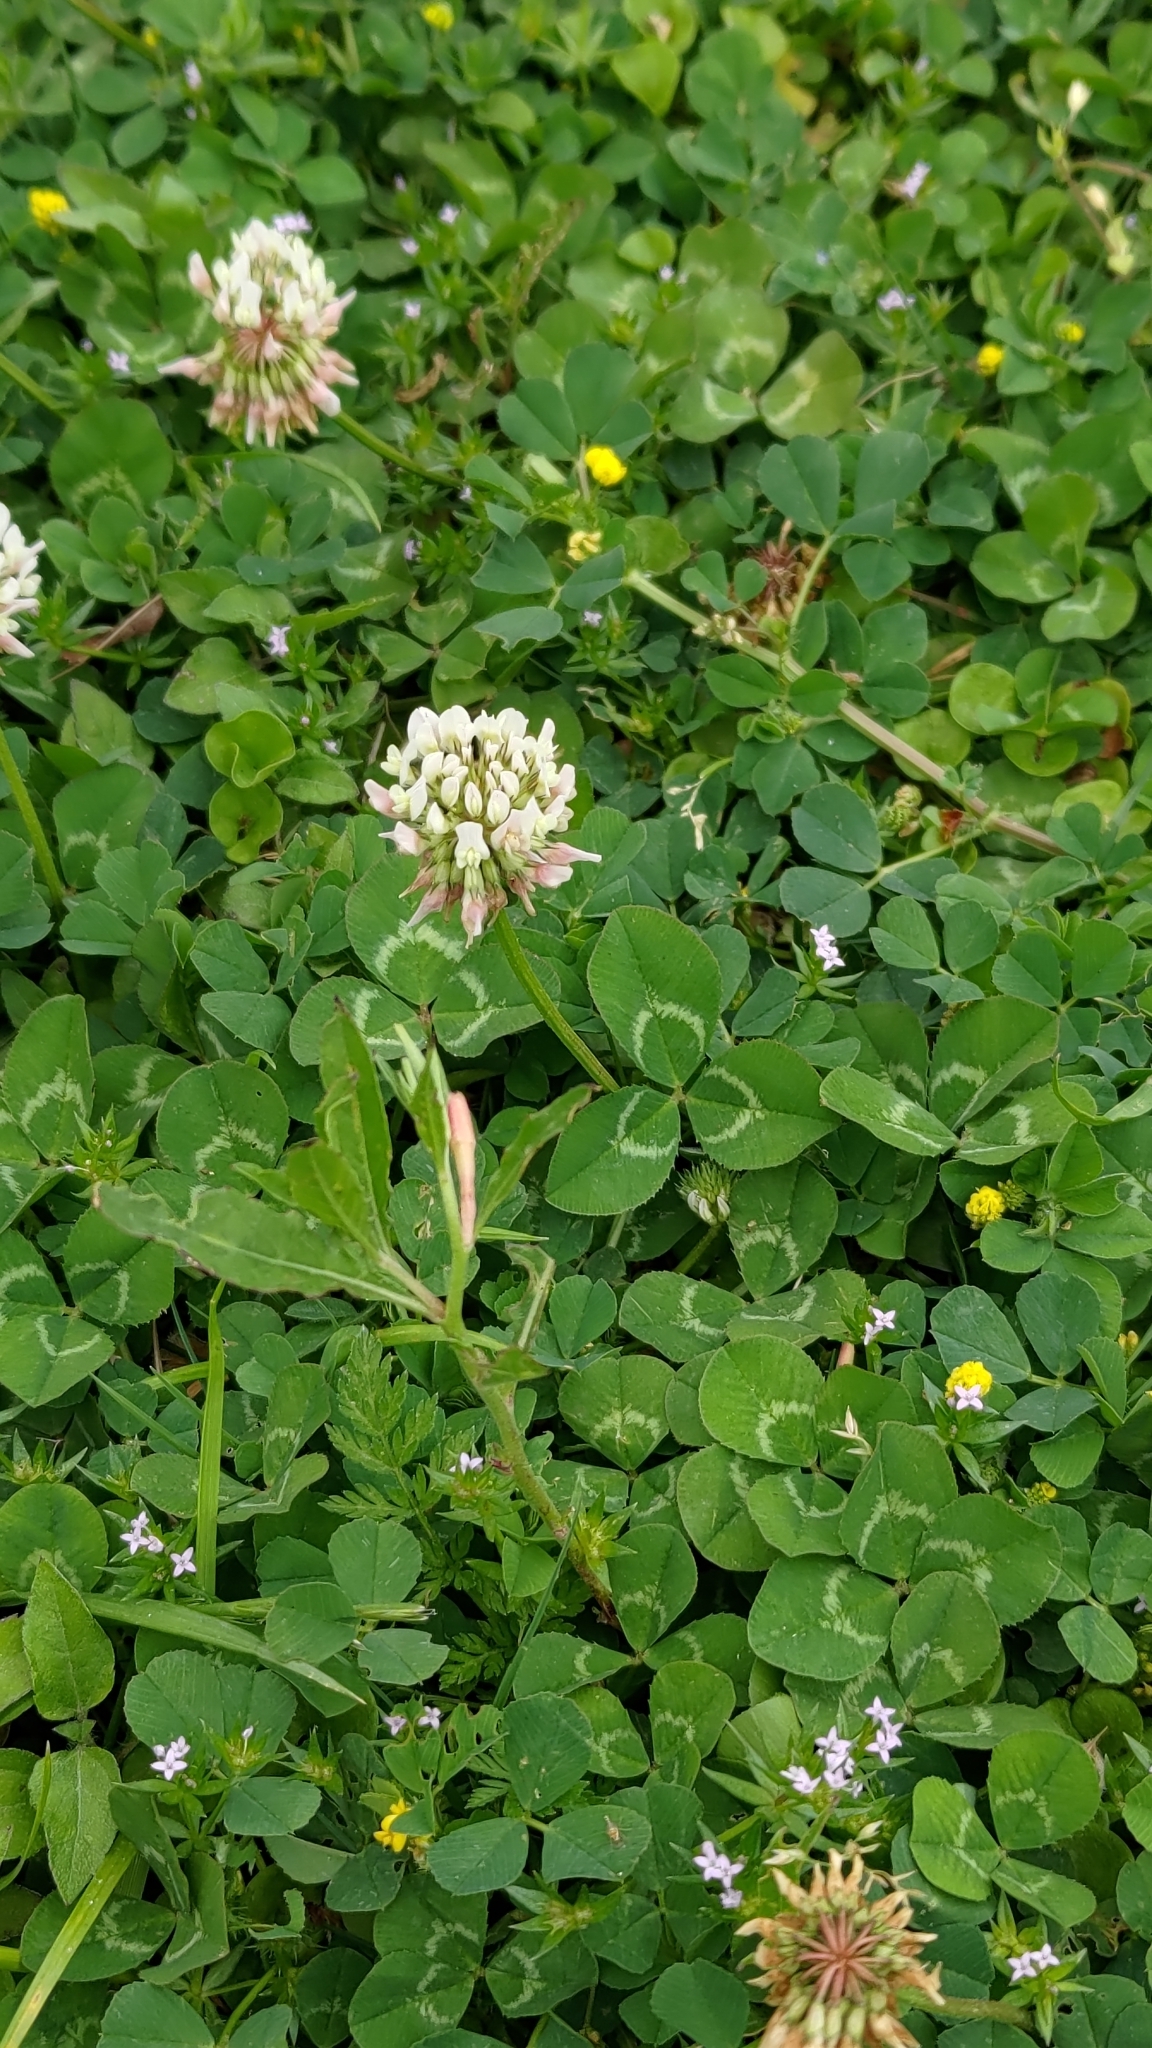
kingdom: Plantae
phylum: Tracheophyta
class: Magnoliopsida
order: Fabales
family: Fabaceae
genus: Trifolium
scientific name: Trifolium repens
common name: White clover
